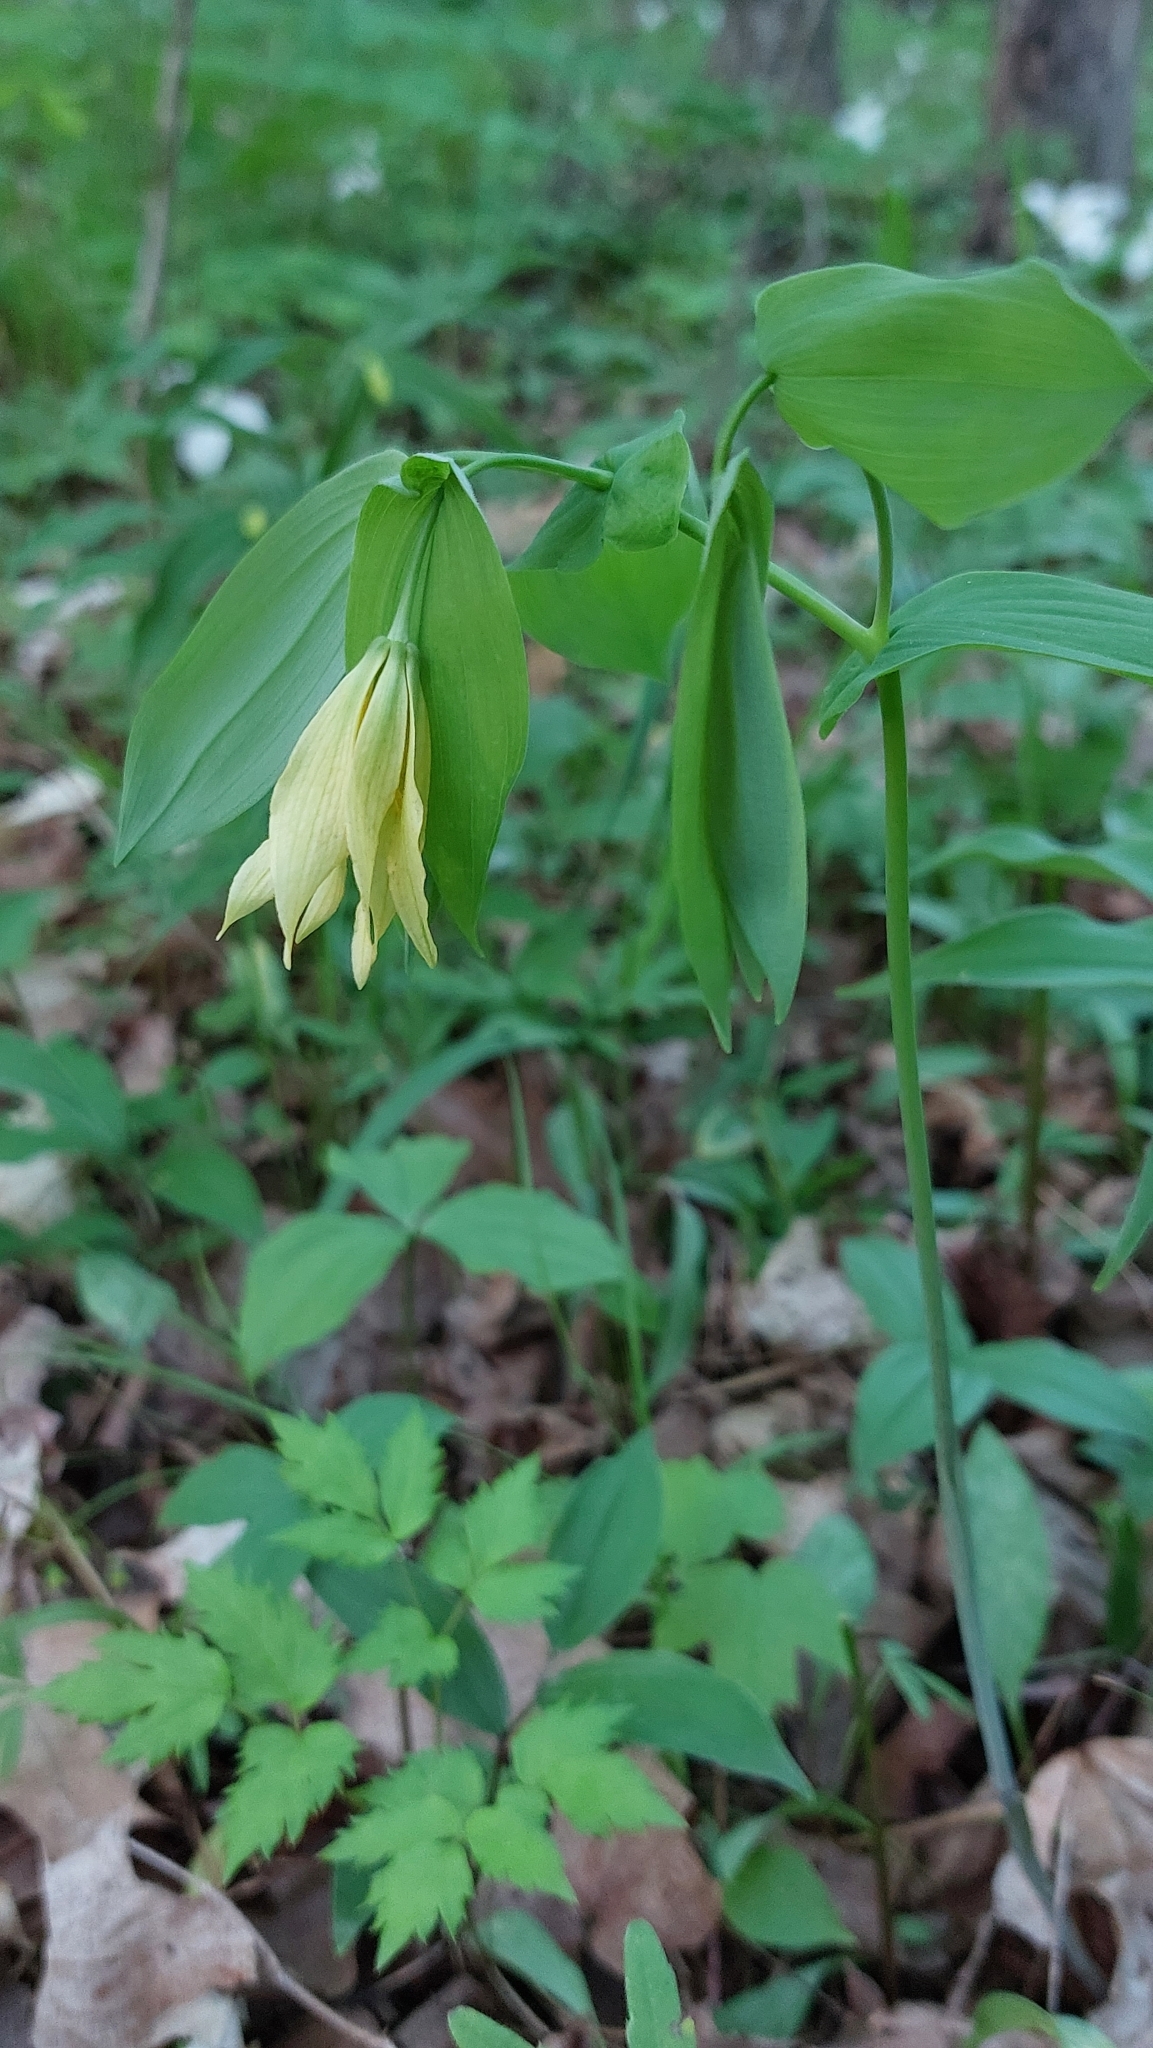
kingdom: Plantae
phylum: Tracheophyta
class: Liliopsida
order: Liliales
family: Colchicaceae
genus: Uvularia
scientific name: Uvularia grandiflora
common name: Bellwort
